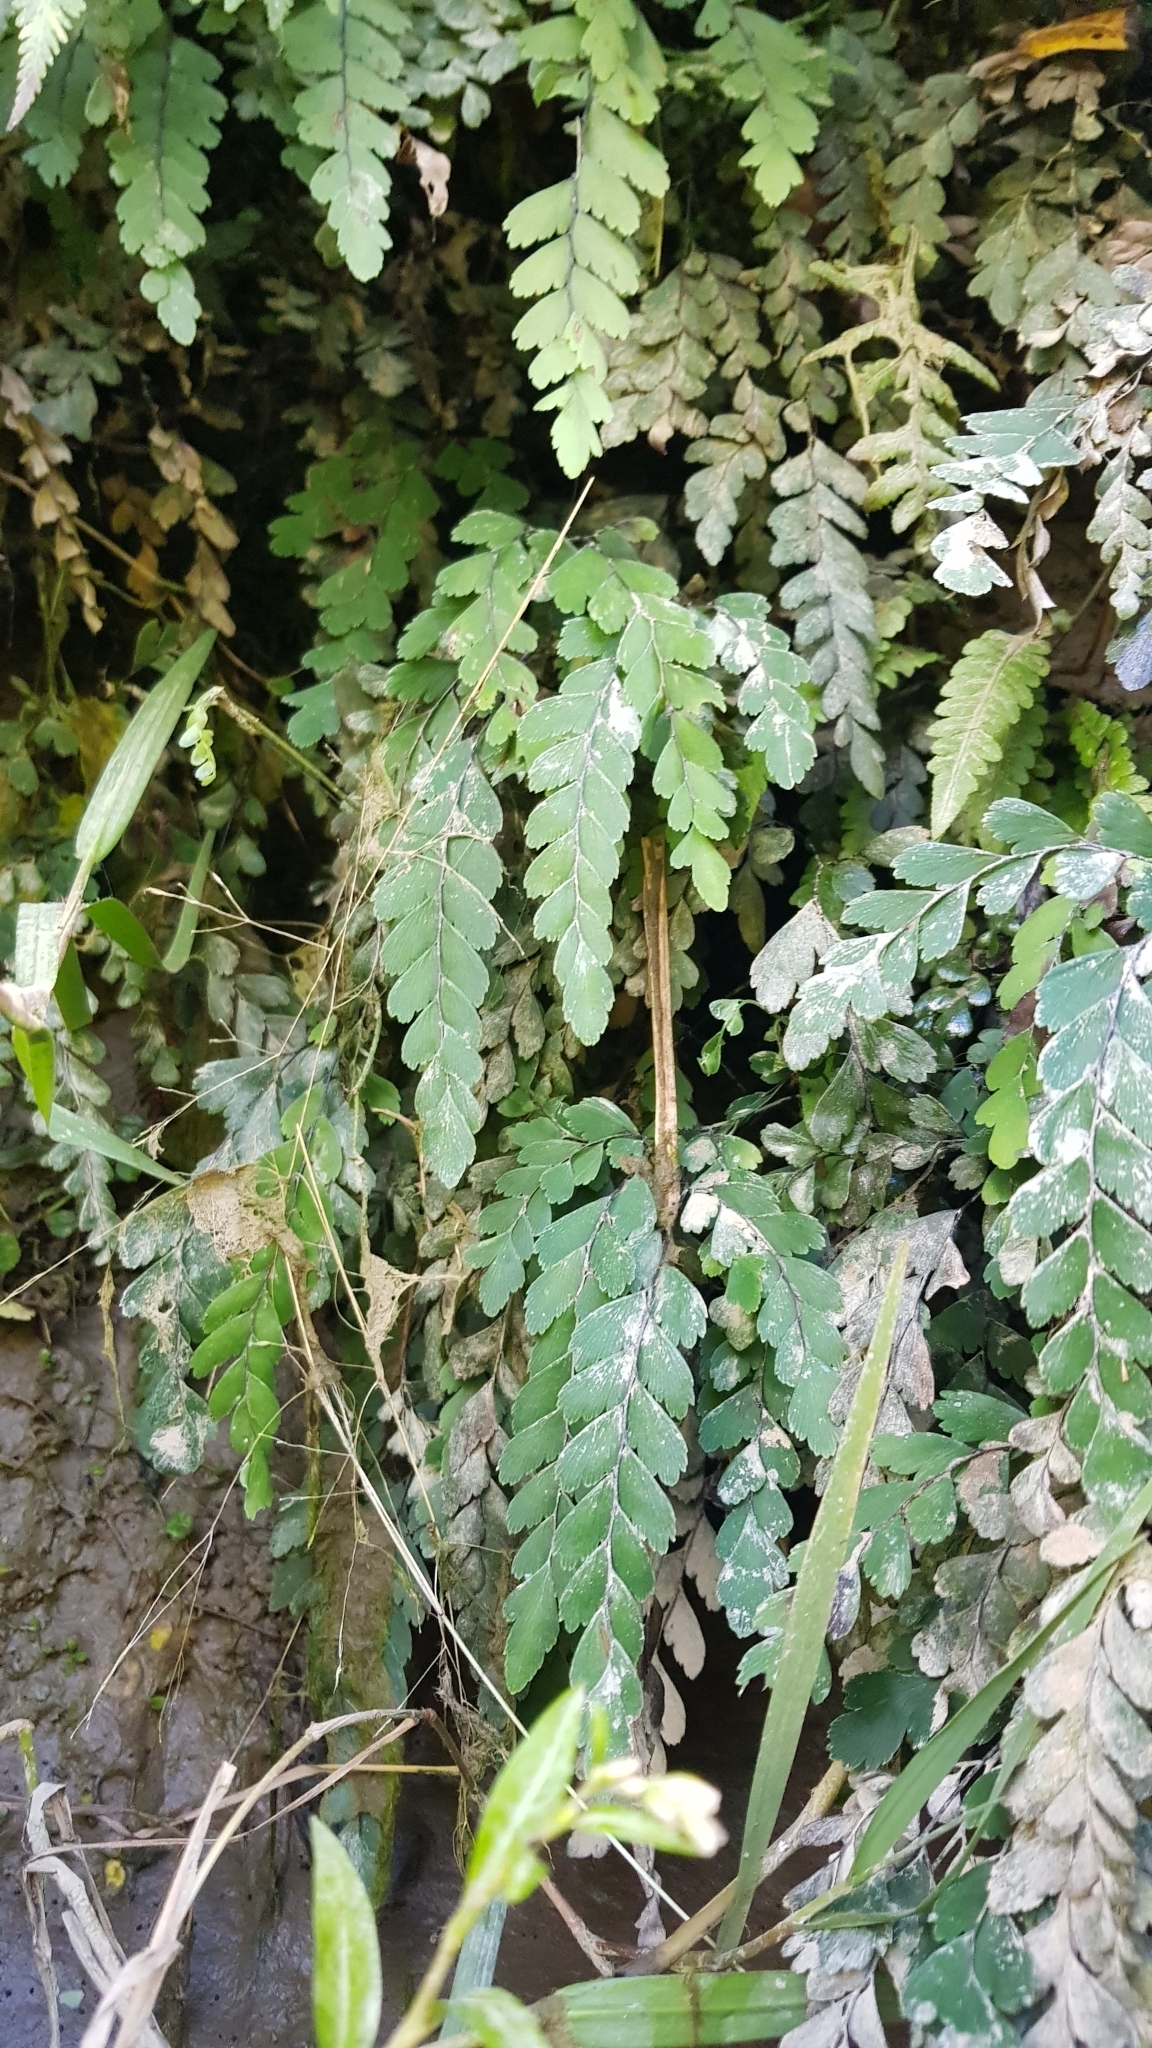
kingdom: Plantae
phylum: Tracheophyta
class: Polypodiopsida
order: Polypodiales
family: Pteridaceae
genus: Adiantum
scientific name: Adiantum cunninghamii
